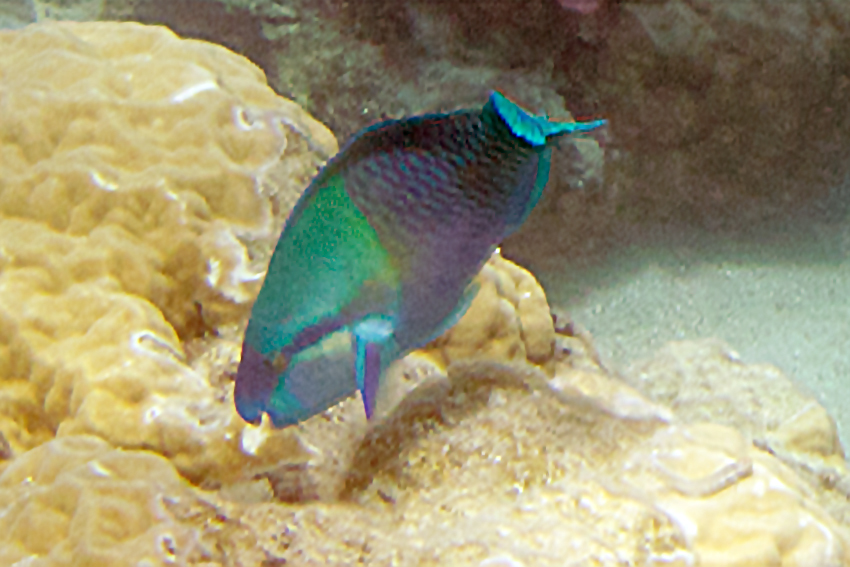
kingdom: Animalia
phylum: Chordata
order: Perciformes
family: Scaridae
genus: Scarus
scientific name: Scarus dimidiatus
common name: Yellowbarred parrotfish
